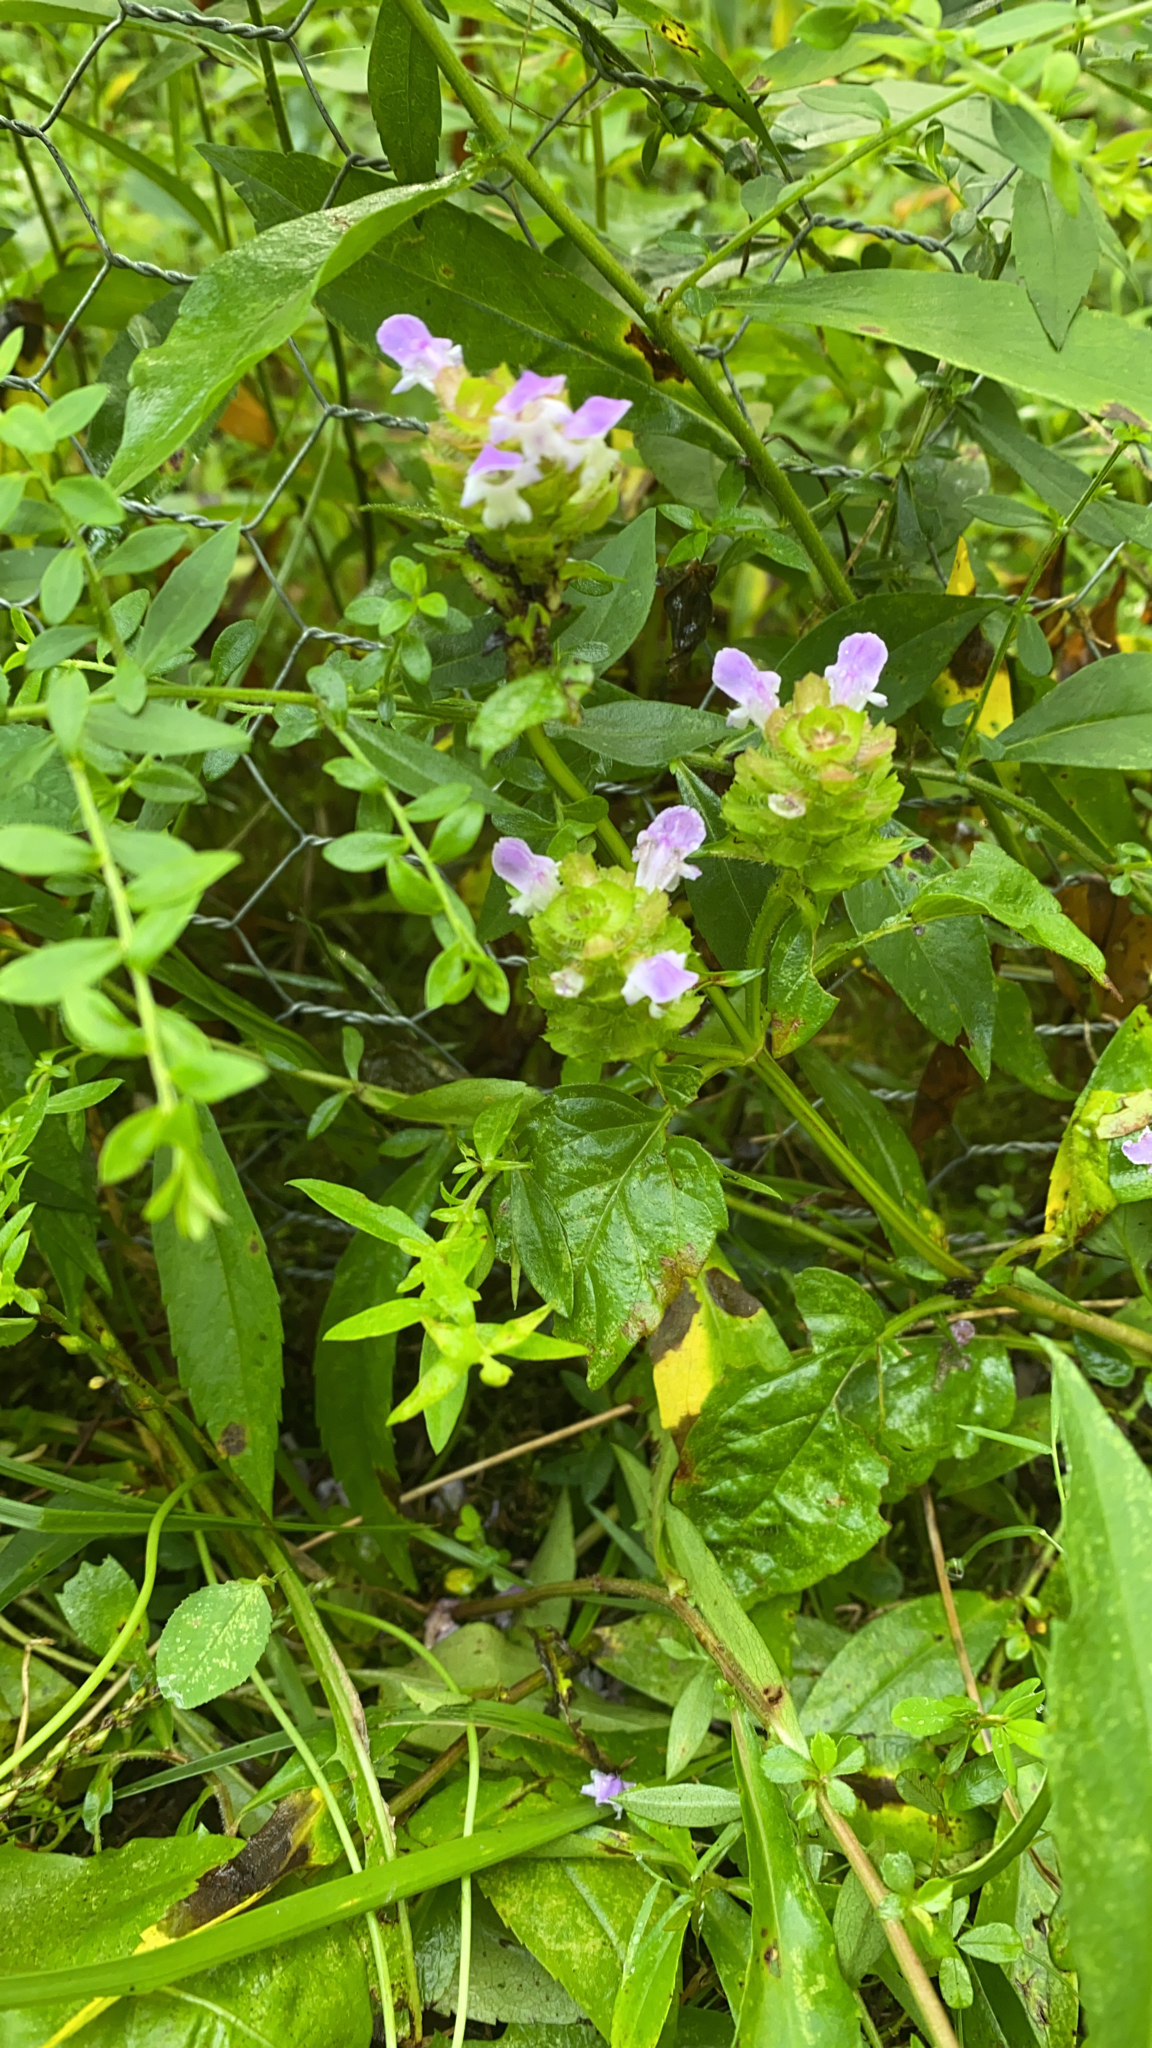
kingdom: Plantae
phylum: Tracheophyta
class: Magnoliopsida
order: Lamiales
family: Lamiaceae
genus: Prunella
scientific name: Prunella vulgaris
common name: Heal-all
